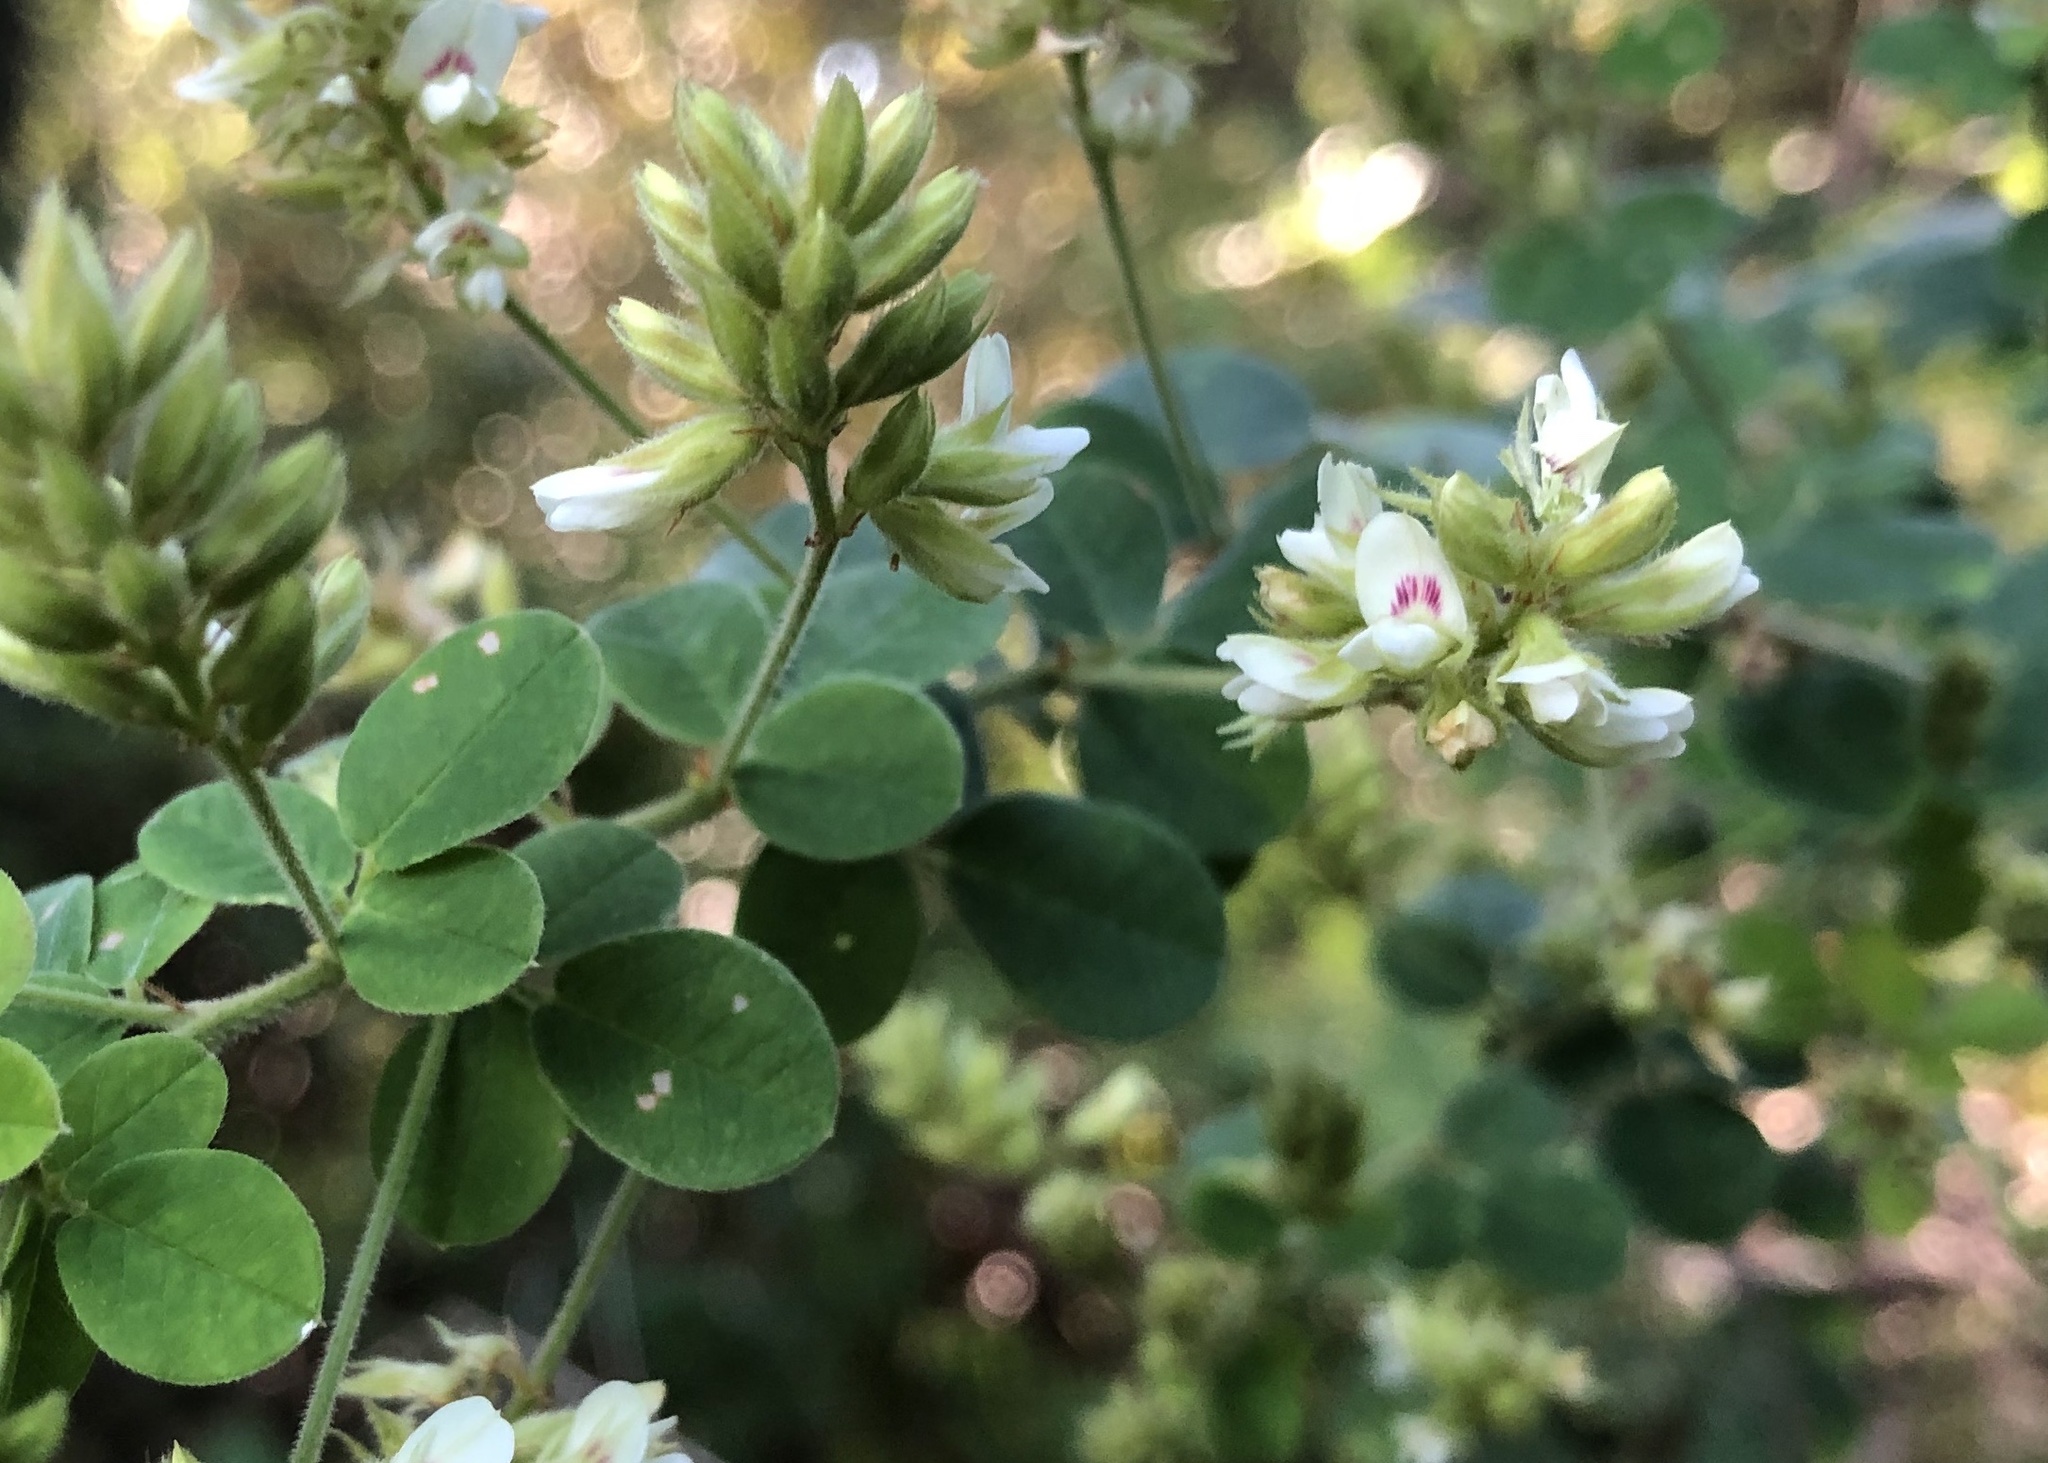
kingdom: Plantae
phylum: Tracheophyta
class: Magnoliopsida
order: Fabales
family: Fabaceae
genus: Lespedeza
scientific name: Lespedeza hirta
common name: Hairy lespedeza
